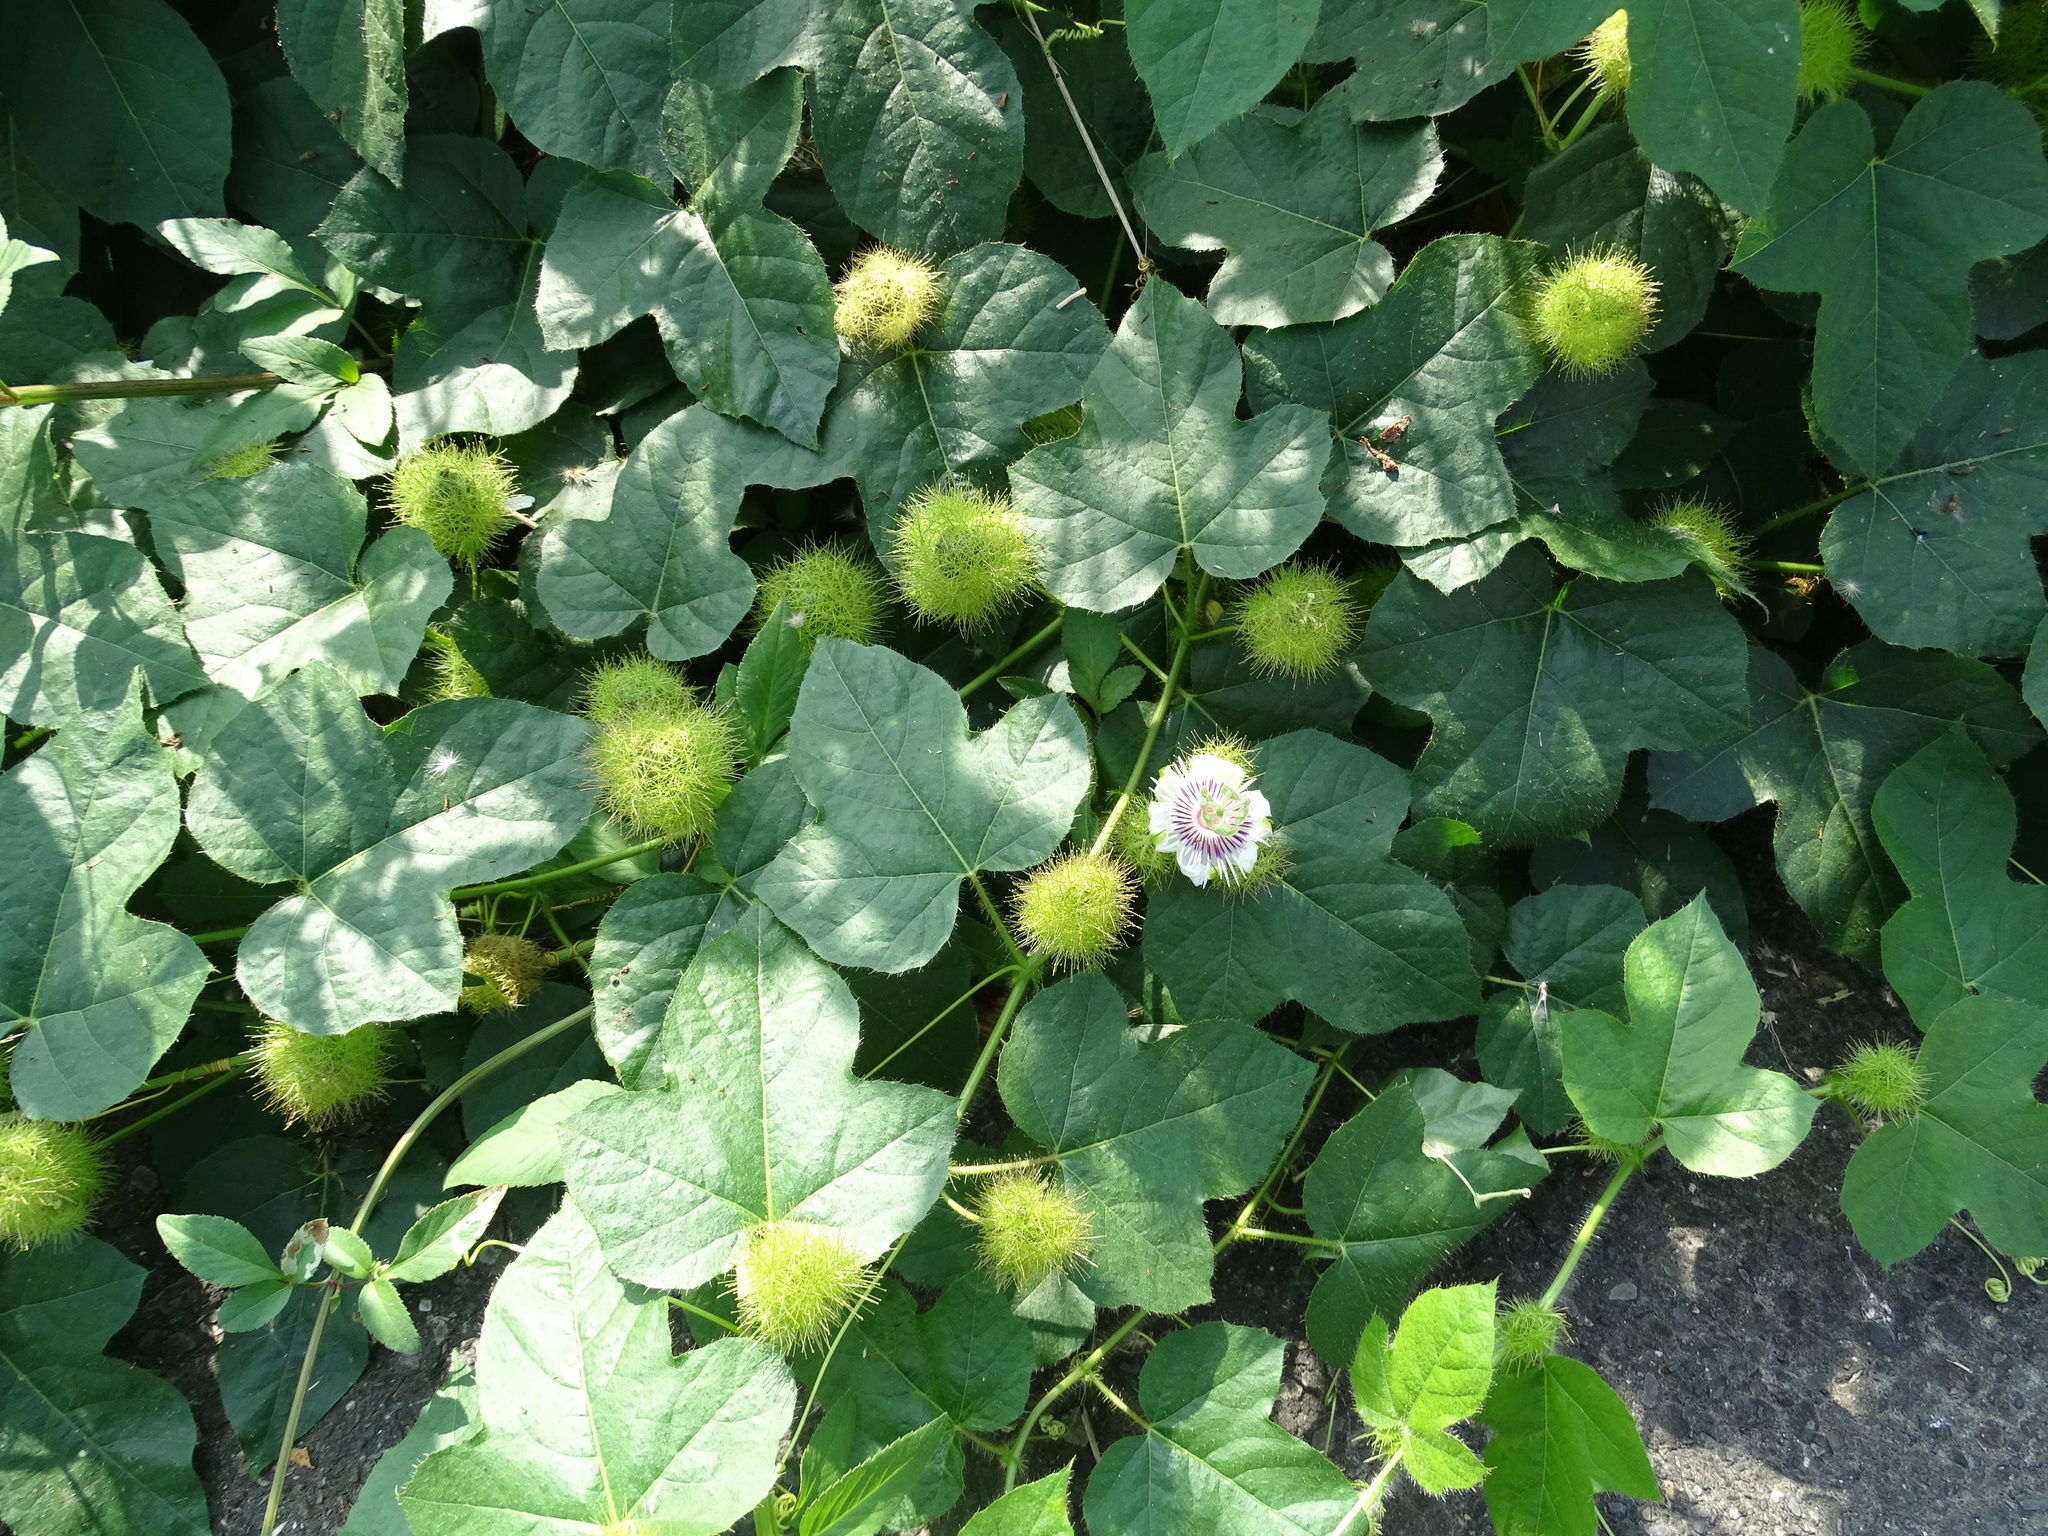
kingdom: Plantae
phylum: Tracheophyta
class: Magnoliopsida
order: Malpighiales
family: Passifloraceae
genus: Passiflora
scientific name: Passiflora vesicaria
